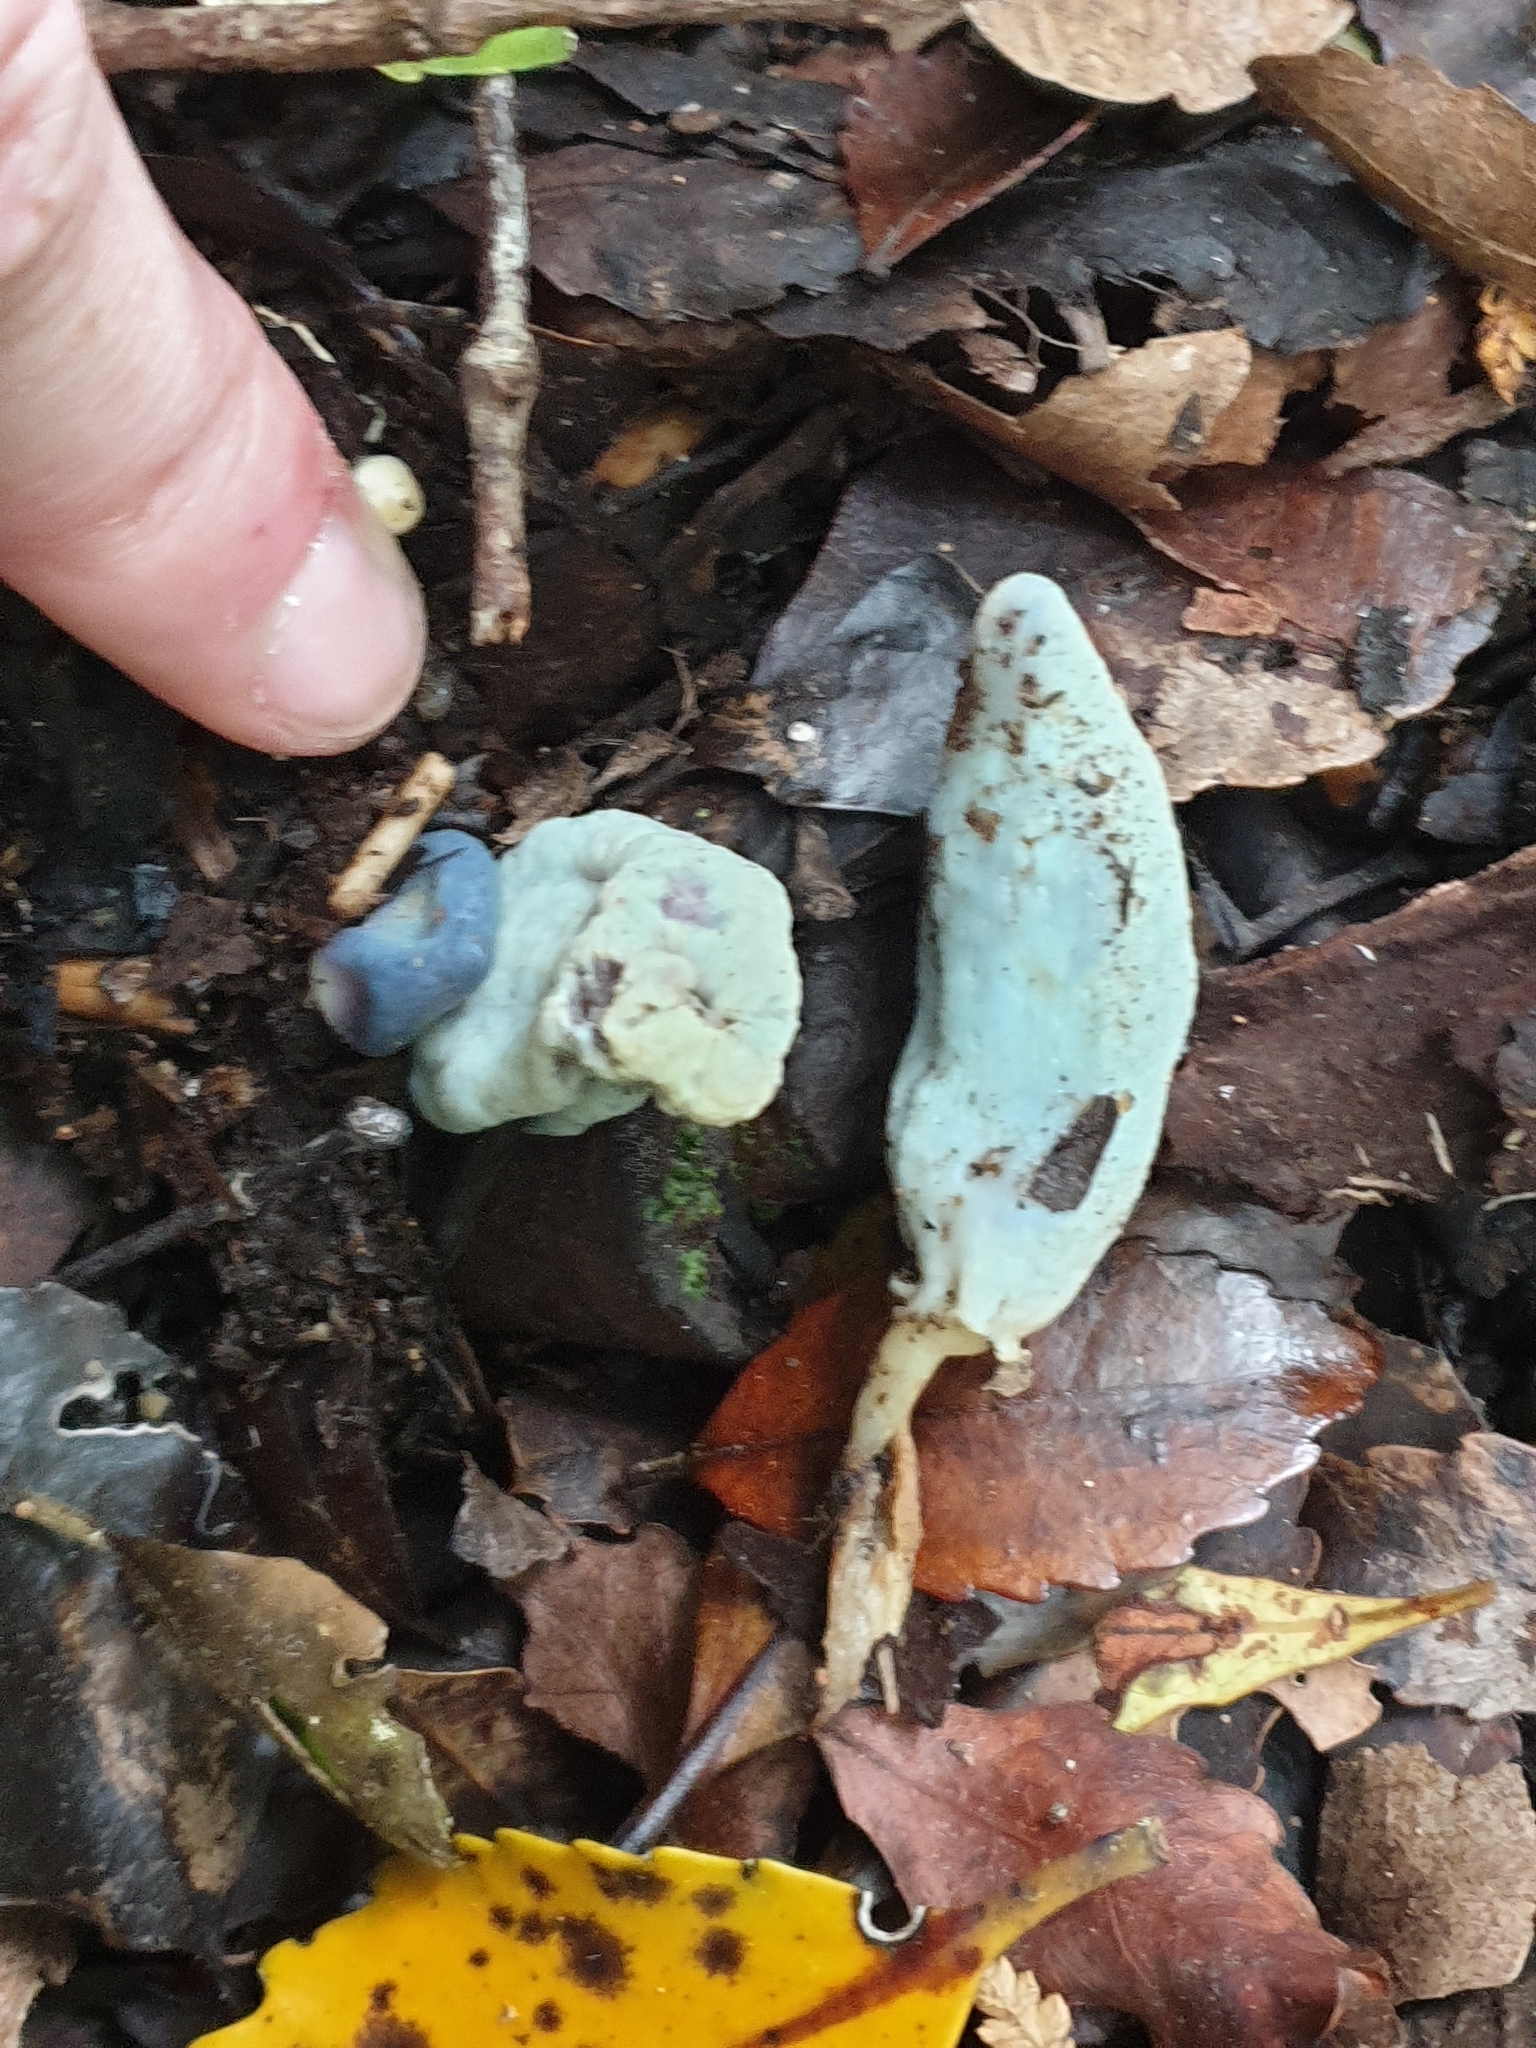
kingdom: Fungi
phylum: Basidiomycota
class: Agaricomycetes
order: Agaricales
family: Agaricaceae
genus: Clavogaster
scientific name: Clavogaster virescens
